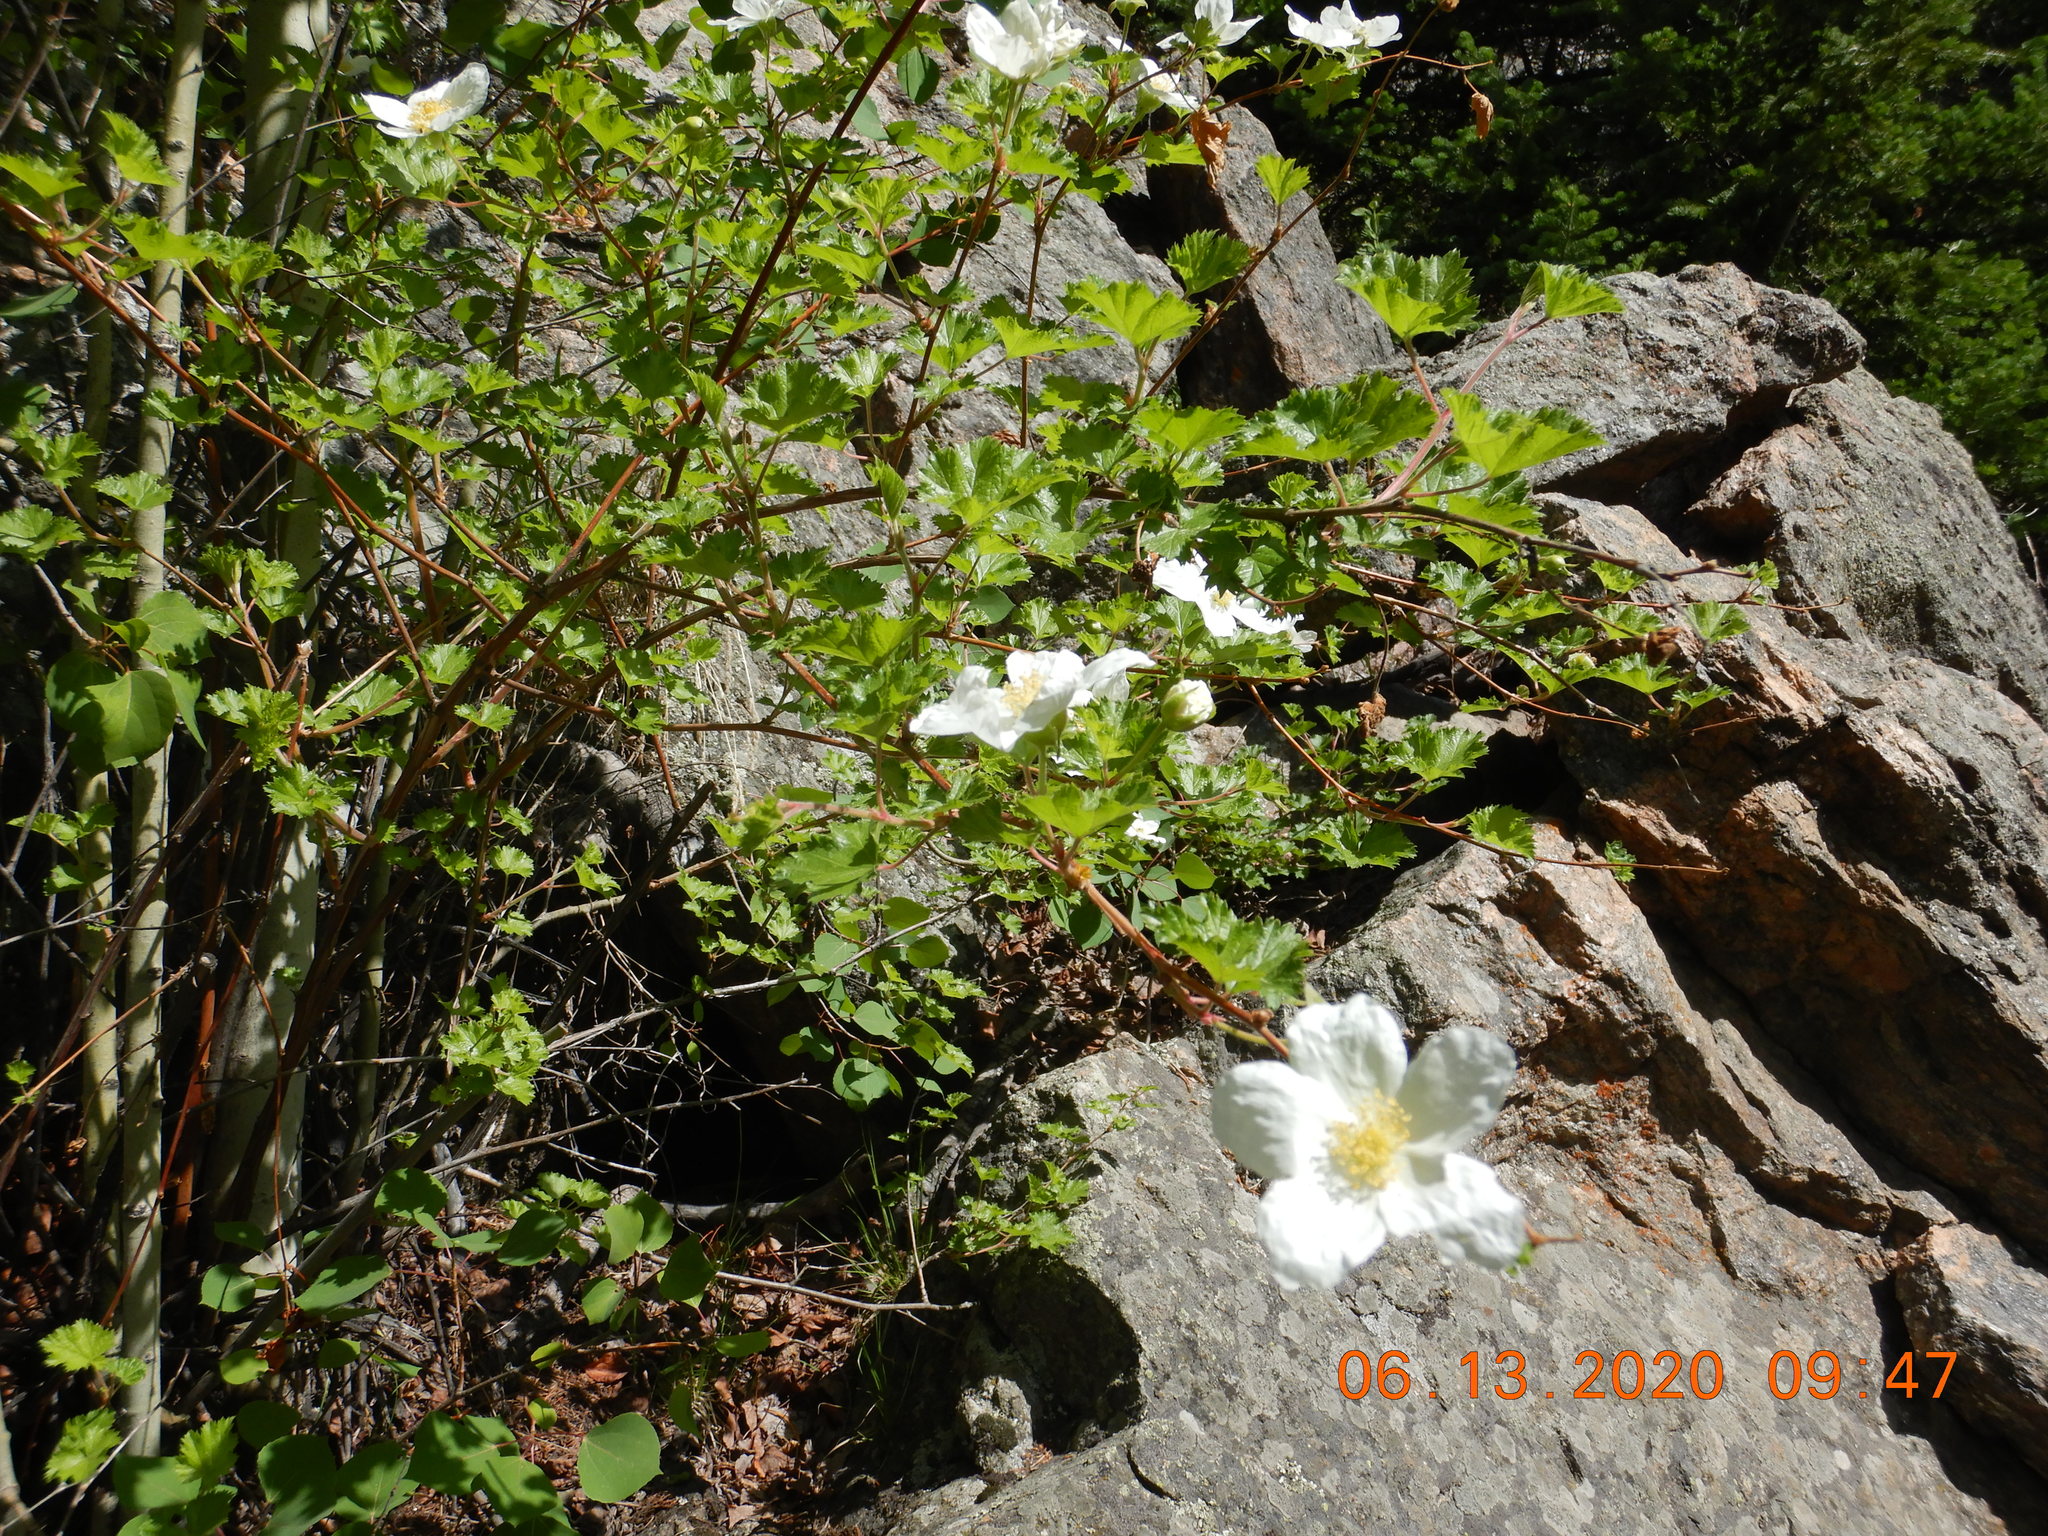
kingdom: Plantae
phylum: Tracheophyta
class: Magnoliopsida
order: Rosales
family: Rosaceae
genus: Rubus
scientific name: Rubus deliciosus
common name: Rocky mountain raspberry
